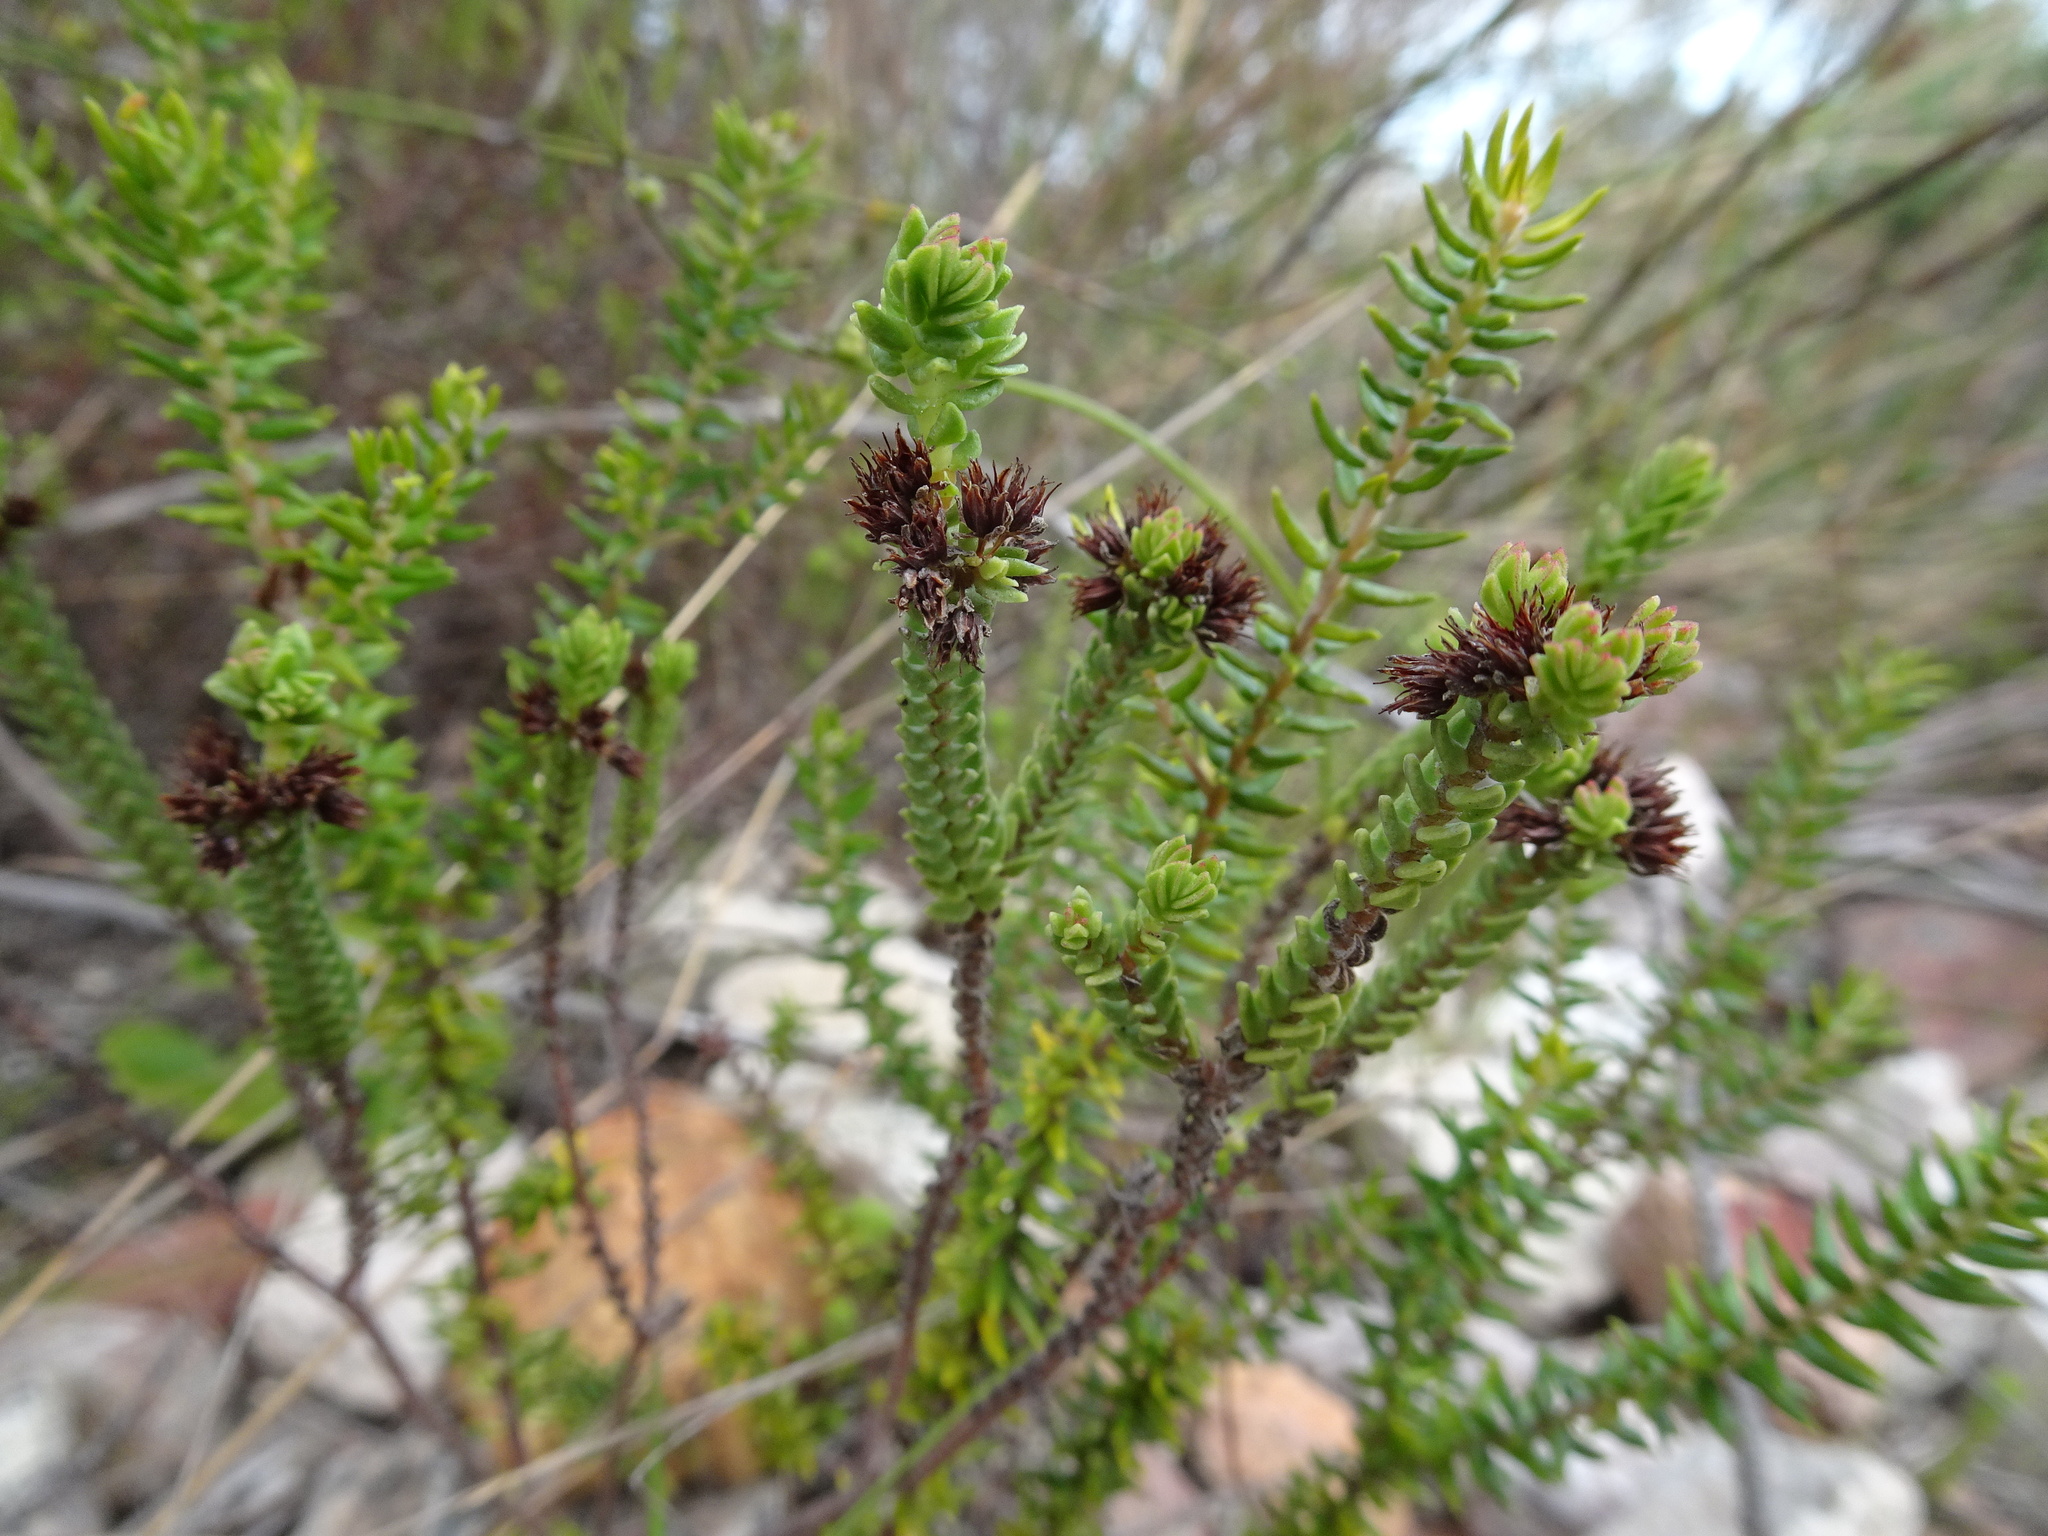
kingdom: Plantae
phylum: Tracheophyta
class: Magnoliopsida
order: Saxifragales
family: Crassulaceae
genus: Crassula
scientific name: Crassula ericoides
